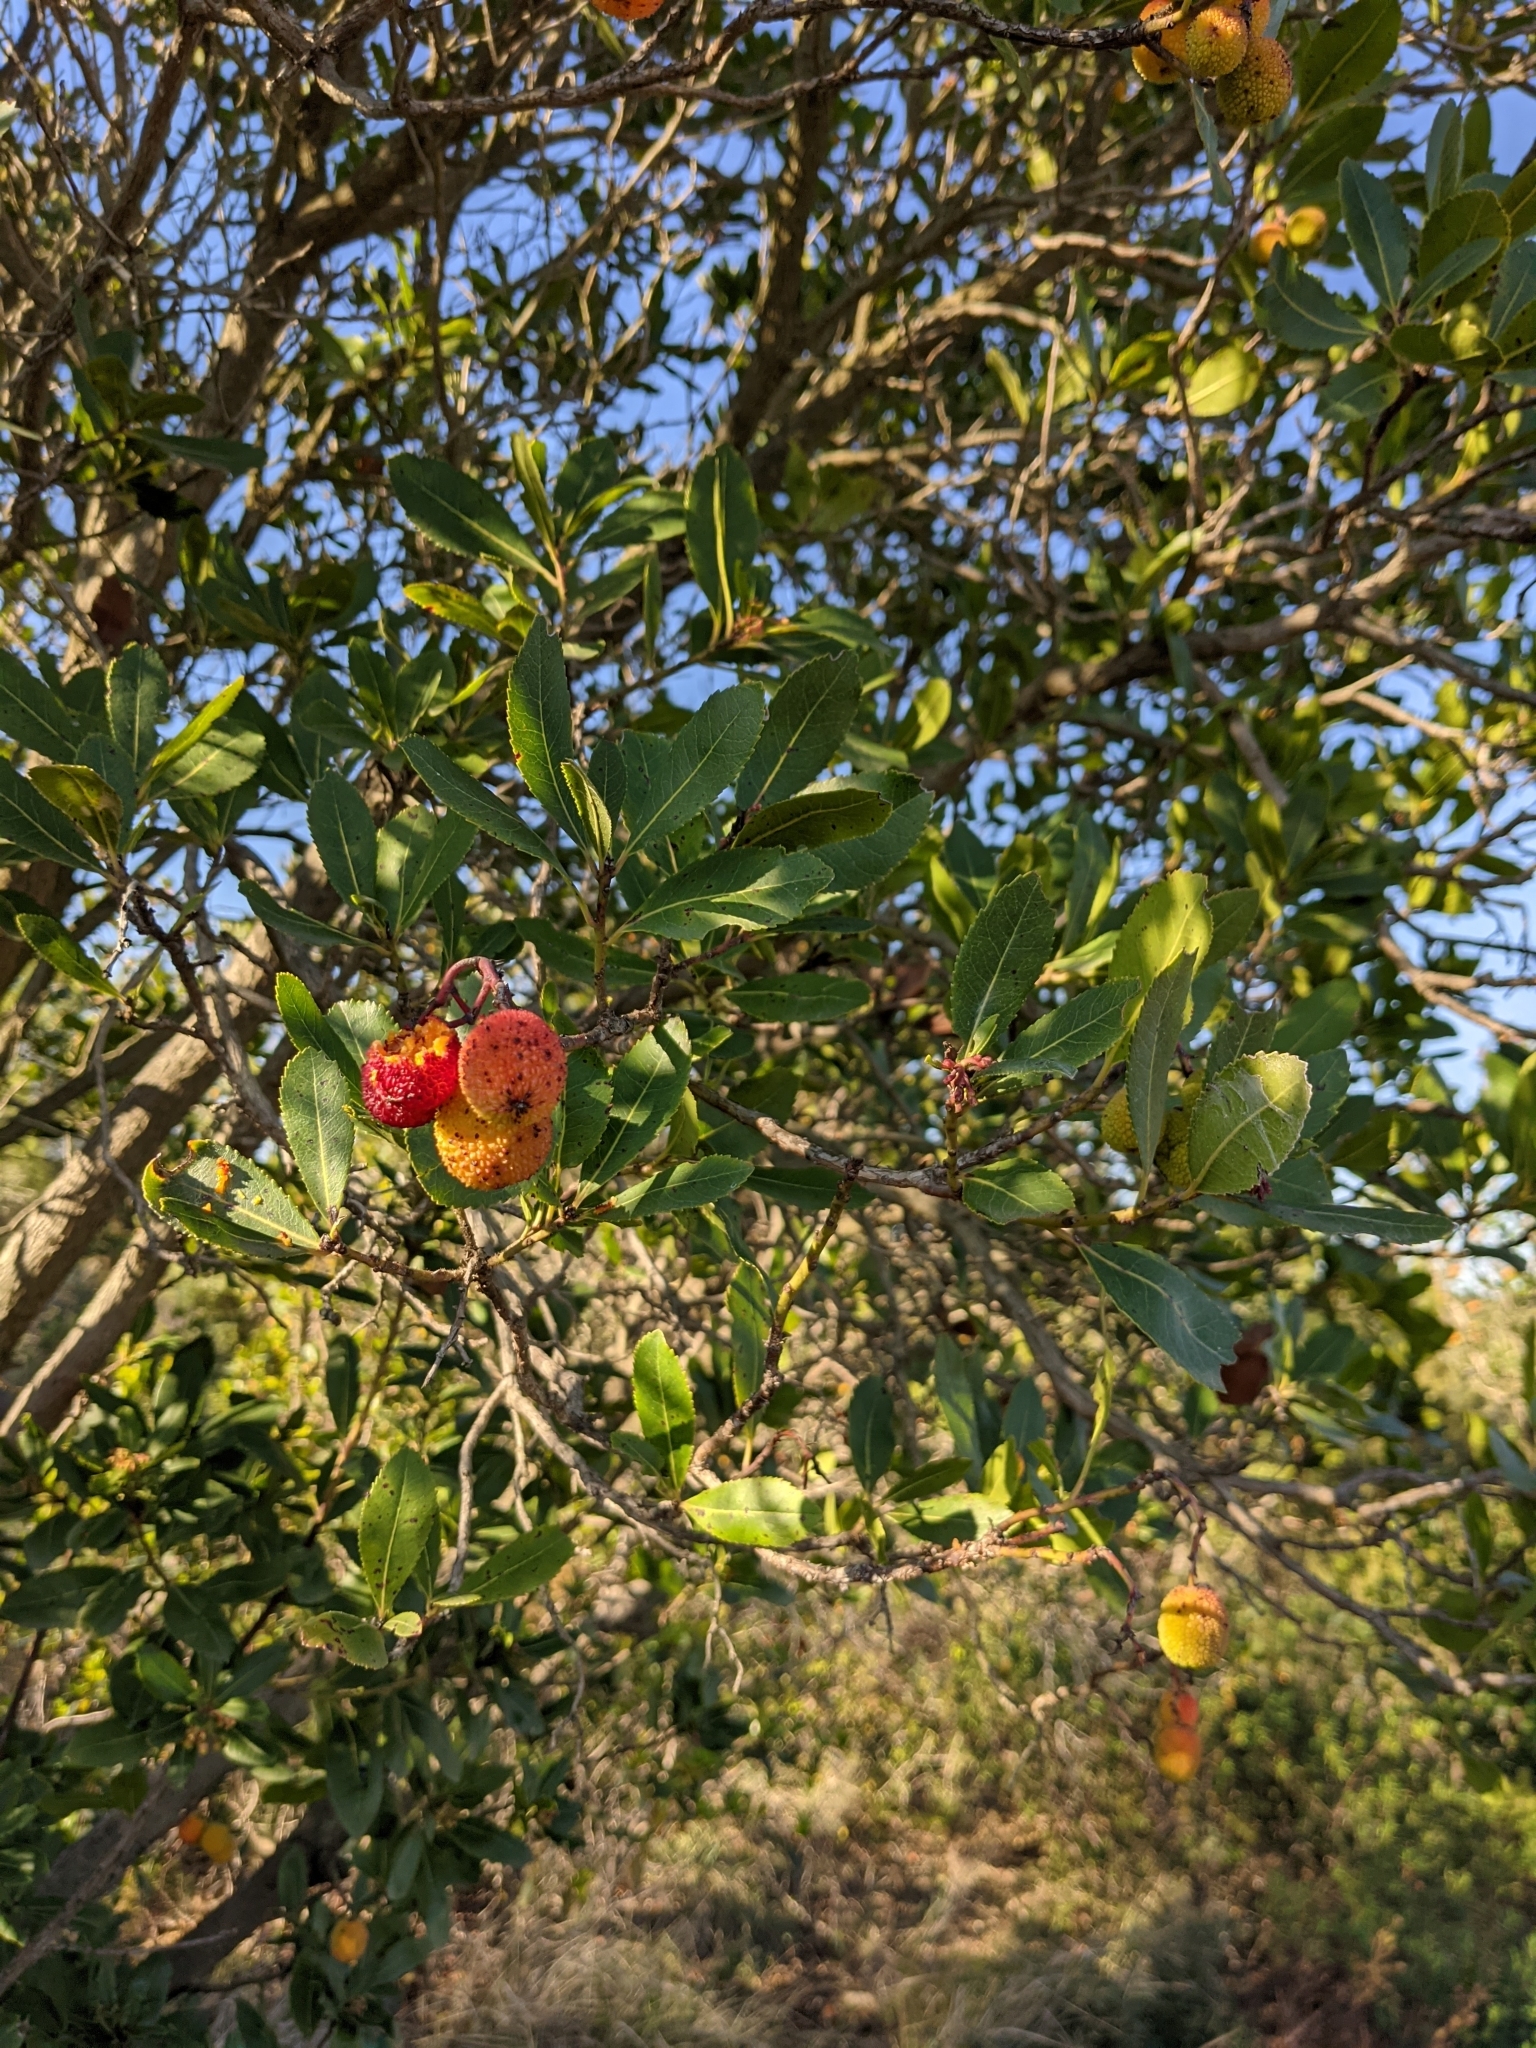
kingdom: Plantae
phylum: Tracheophyta
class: Magnoliopsida
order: Ericales
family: Ericaceae
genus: Arbutus
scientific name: Arbutus unedo
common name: Strawberry-tree
